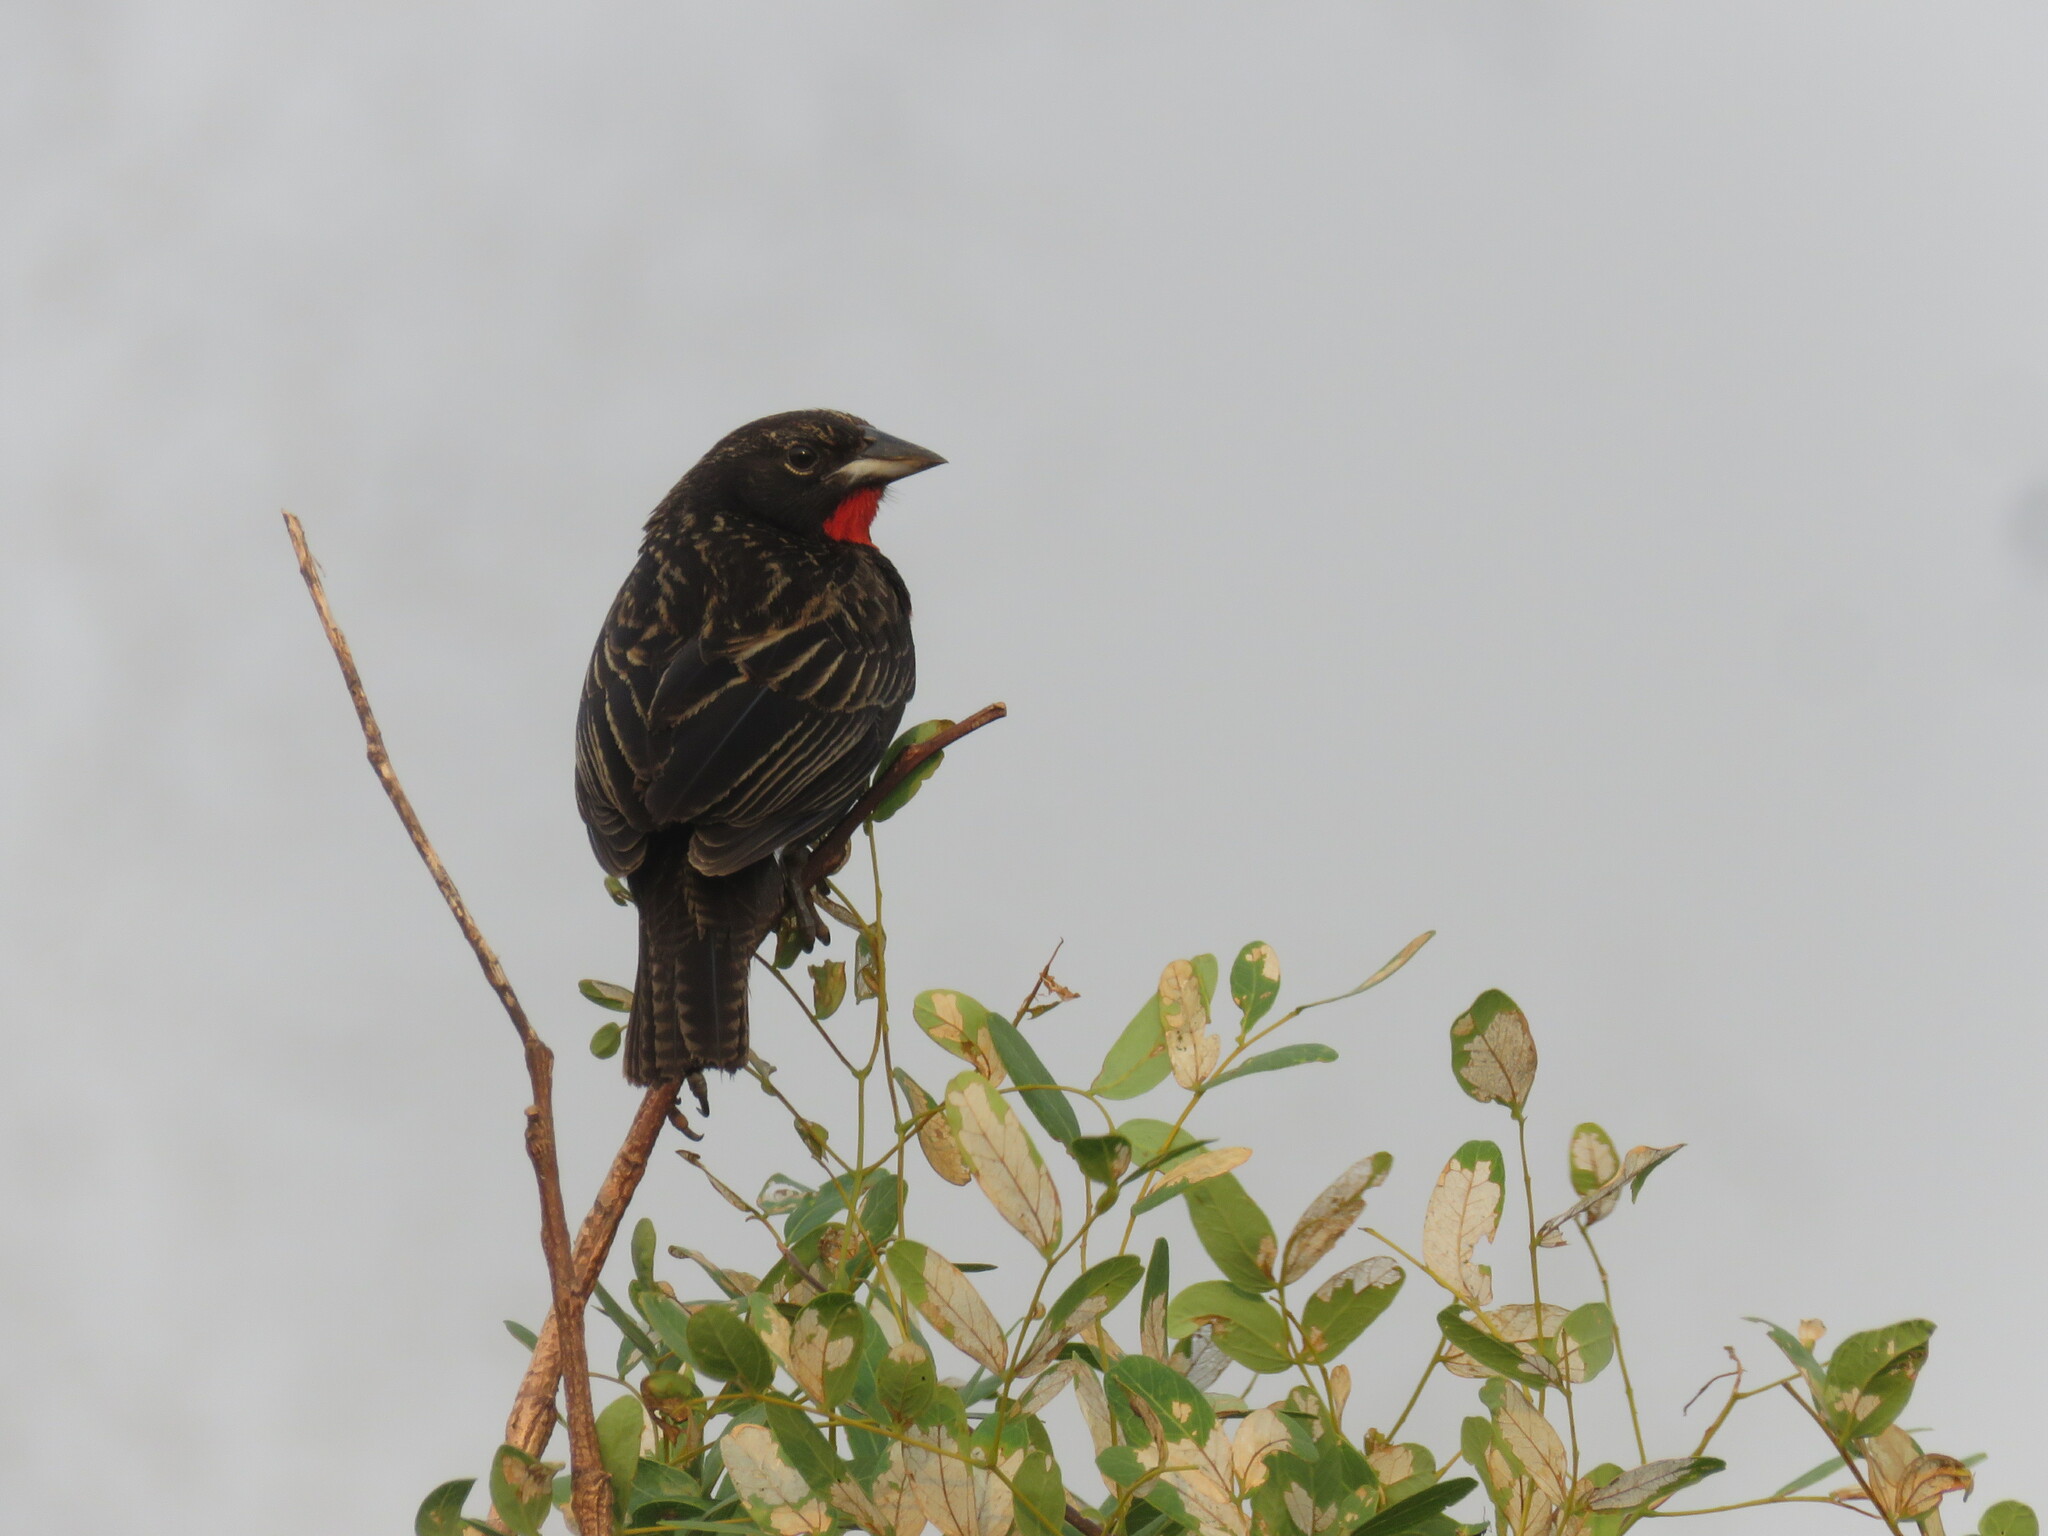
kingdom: Animalia
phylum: Chordata
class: Aves
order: Passeriformes
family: Icteridae
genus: Sturnella
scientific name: Sturnella militaris
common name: Red-breasted blackbird
